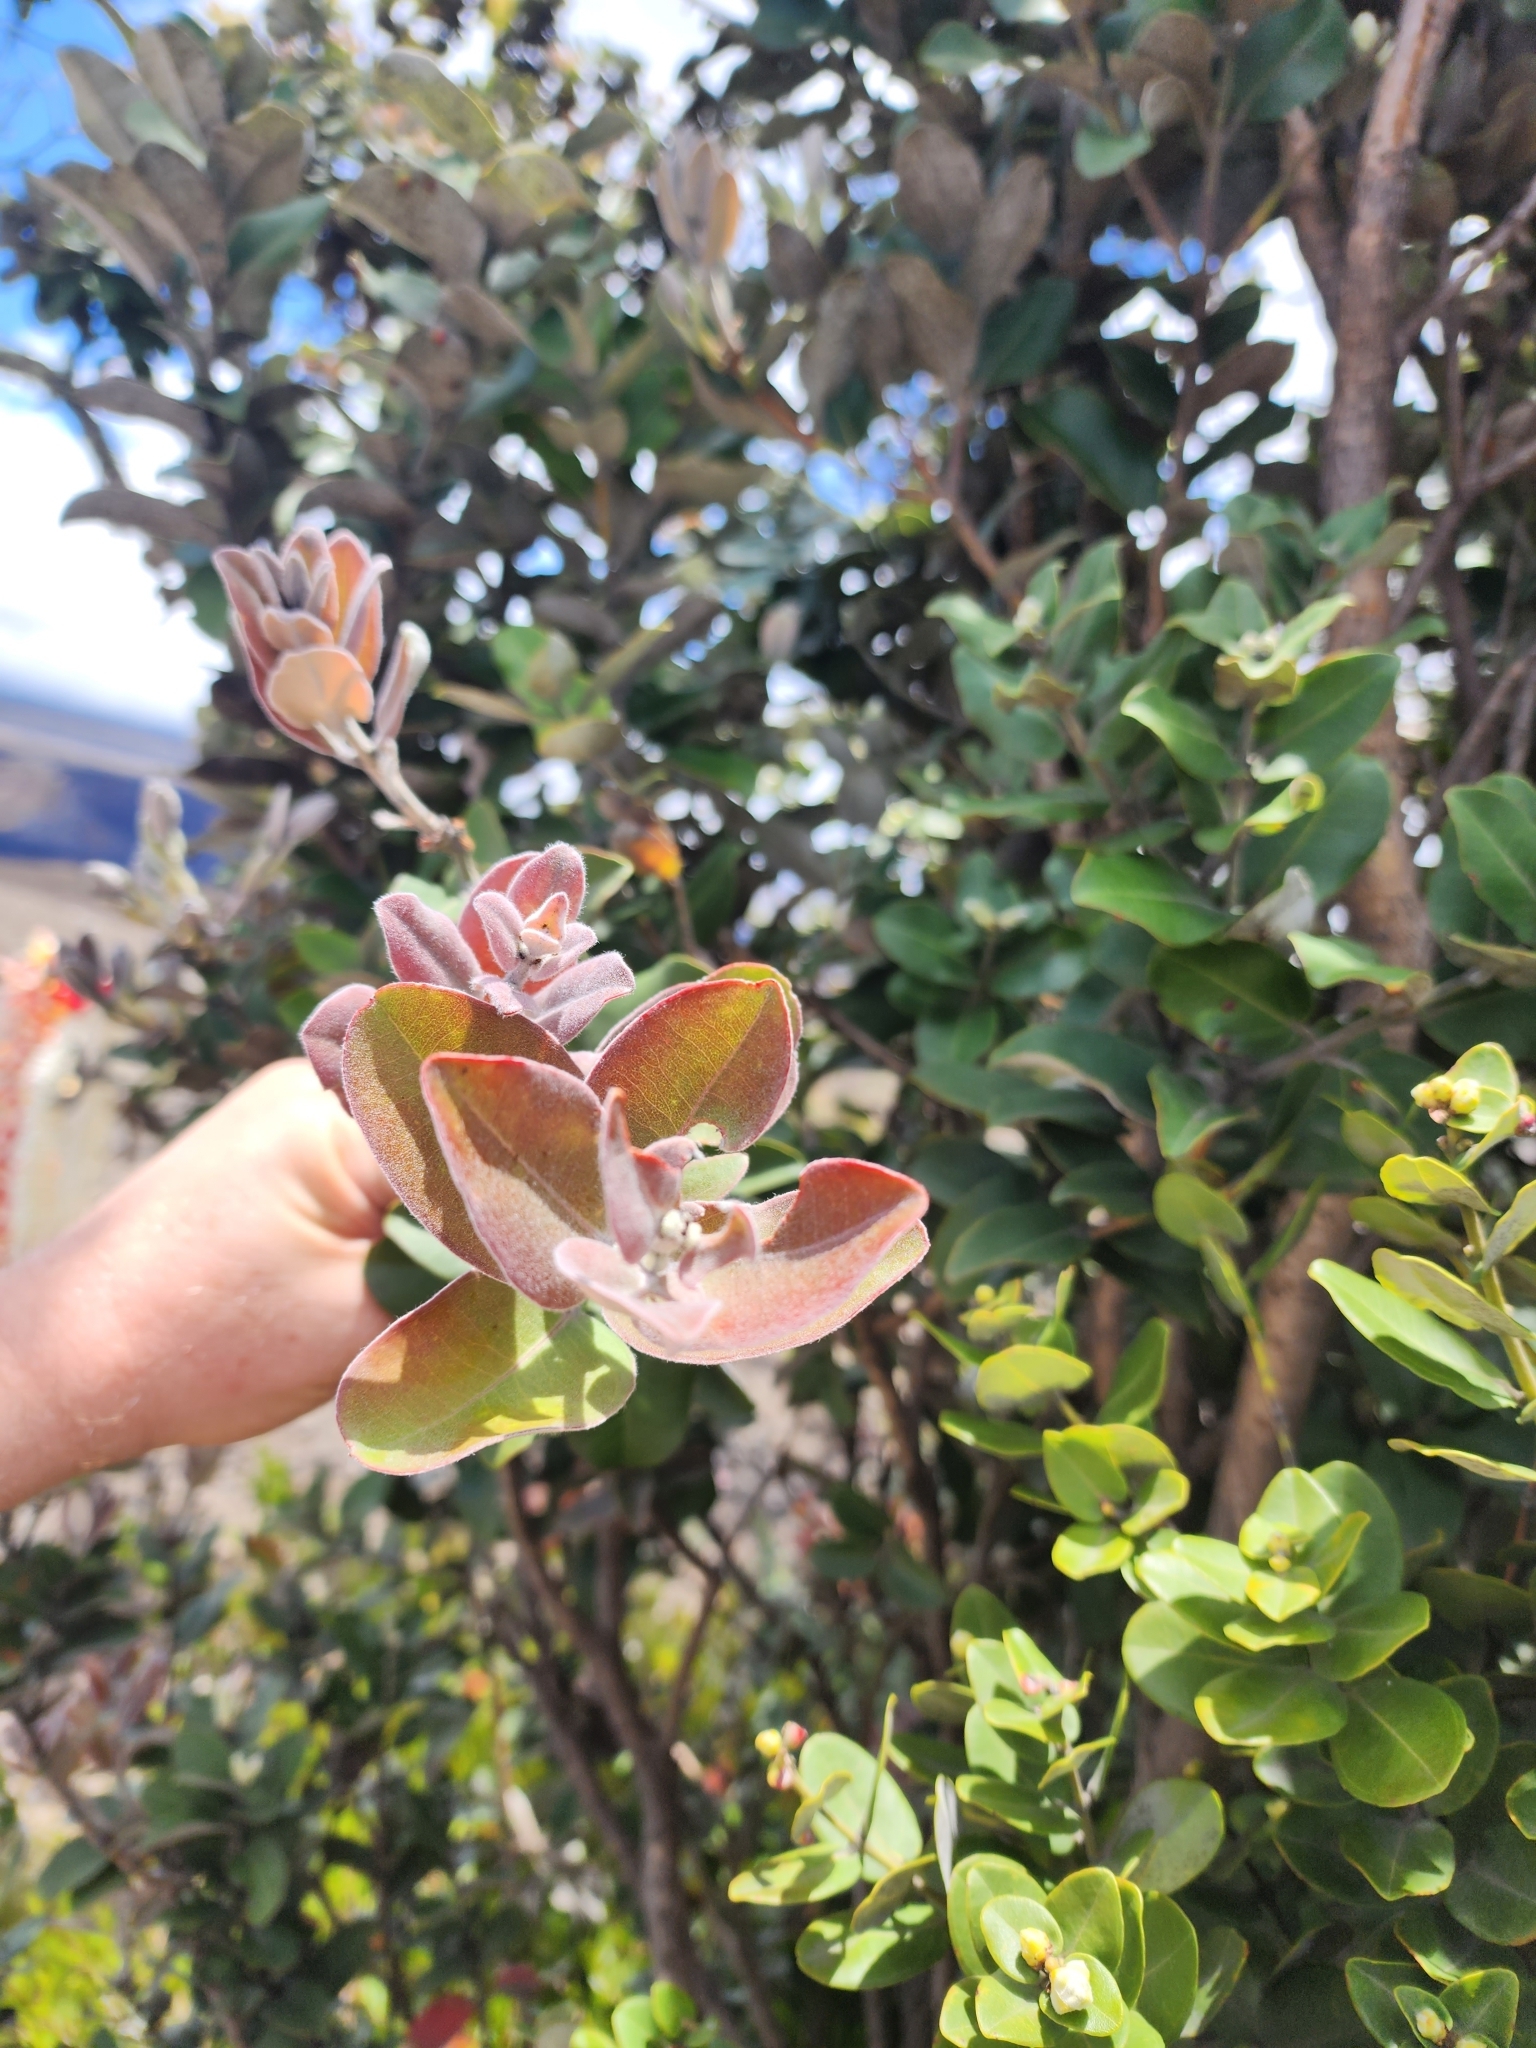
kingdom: Plantae
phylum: Tracheophyta
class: Magnoliopsida
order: Myrtales
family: Myrtaceae
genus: Metrosideros
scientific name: Metrosideros polymorpha
